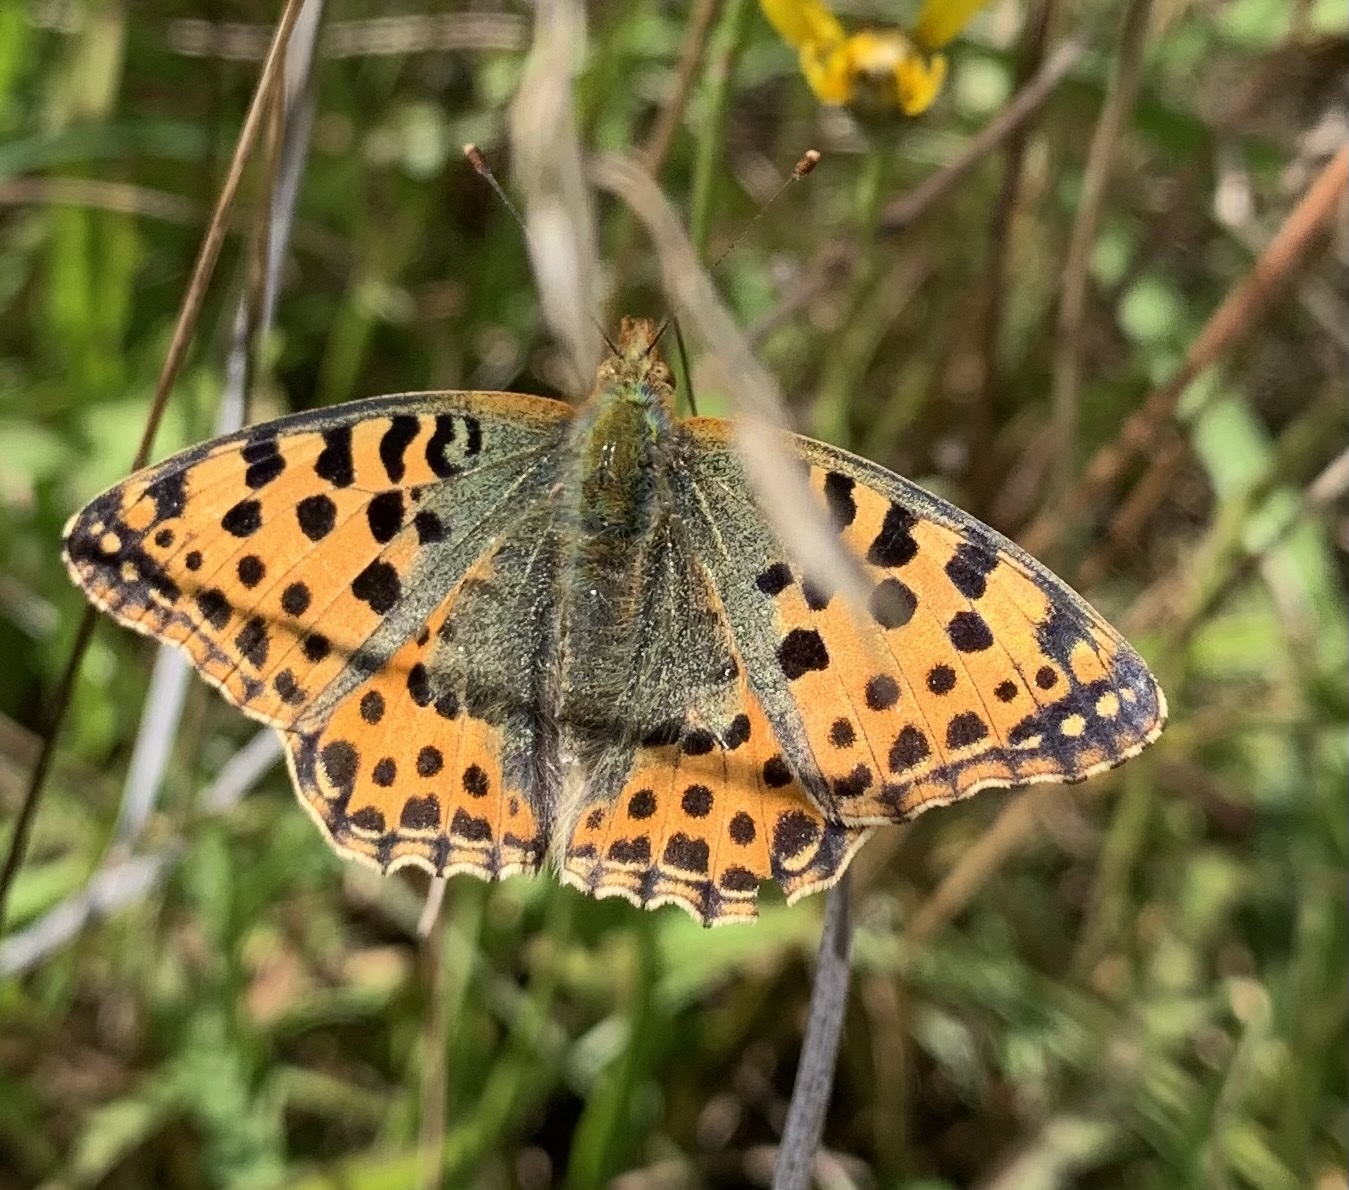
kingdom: Animalia
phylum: Arthropoda
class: Insecta
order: Lepidoptera
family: Nymphalidae
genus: Issoria
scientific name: Issoria lathonia
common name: Queen of spain fritillary
